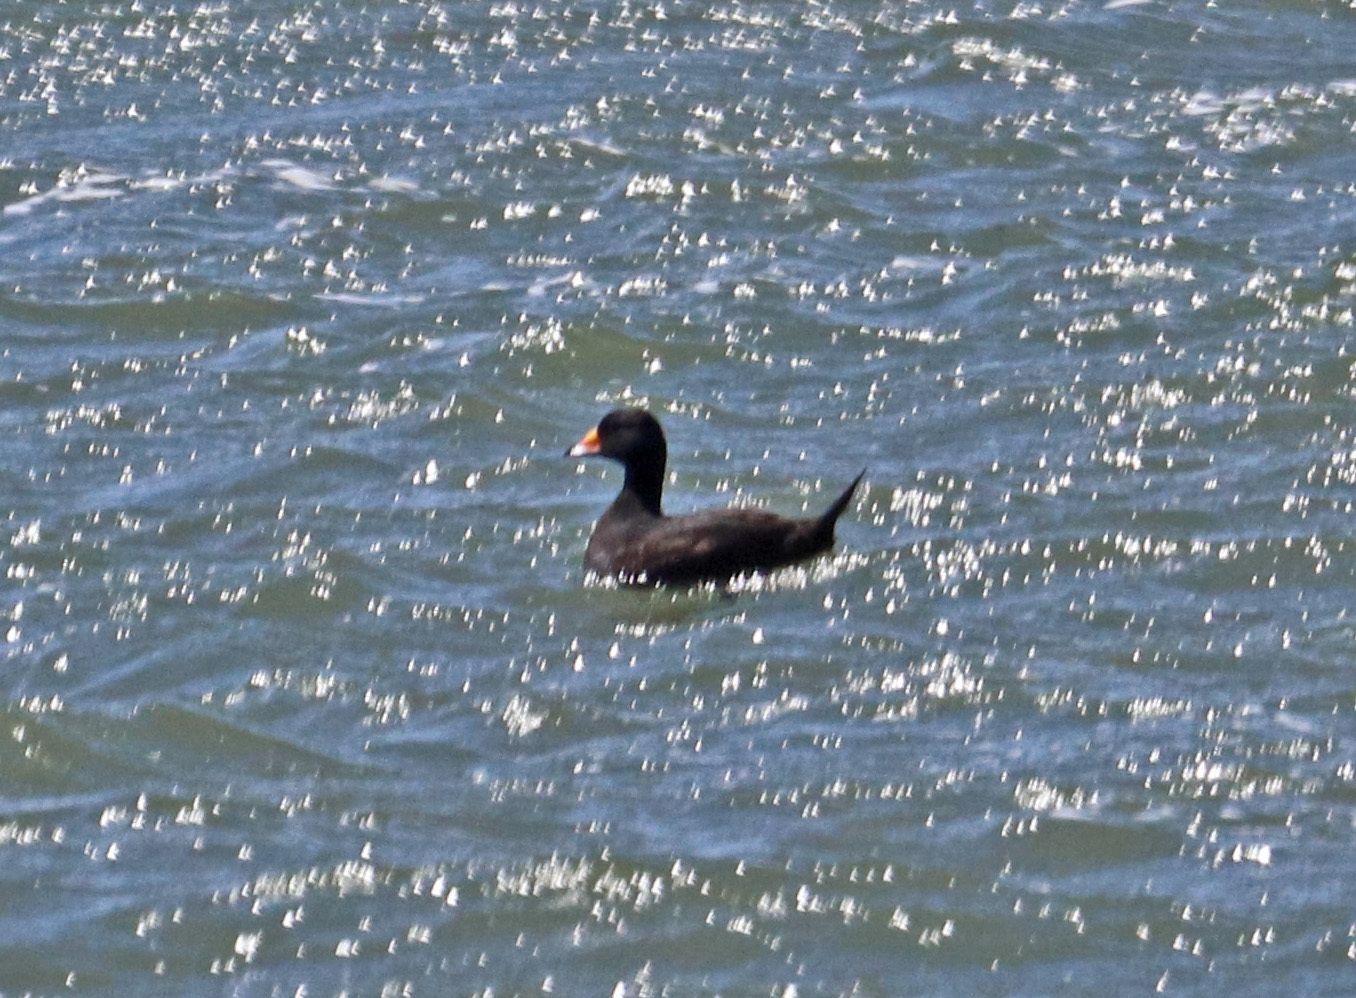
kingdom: Animalia
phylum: Chordata
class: Aves
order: Anseriformes
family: Anatidae
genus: Melanitta
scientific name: Melanitta americana
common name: Black scoter
